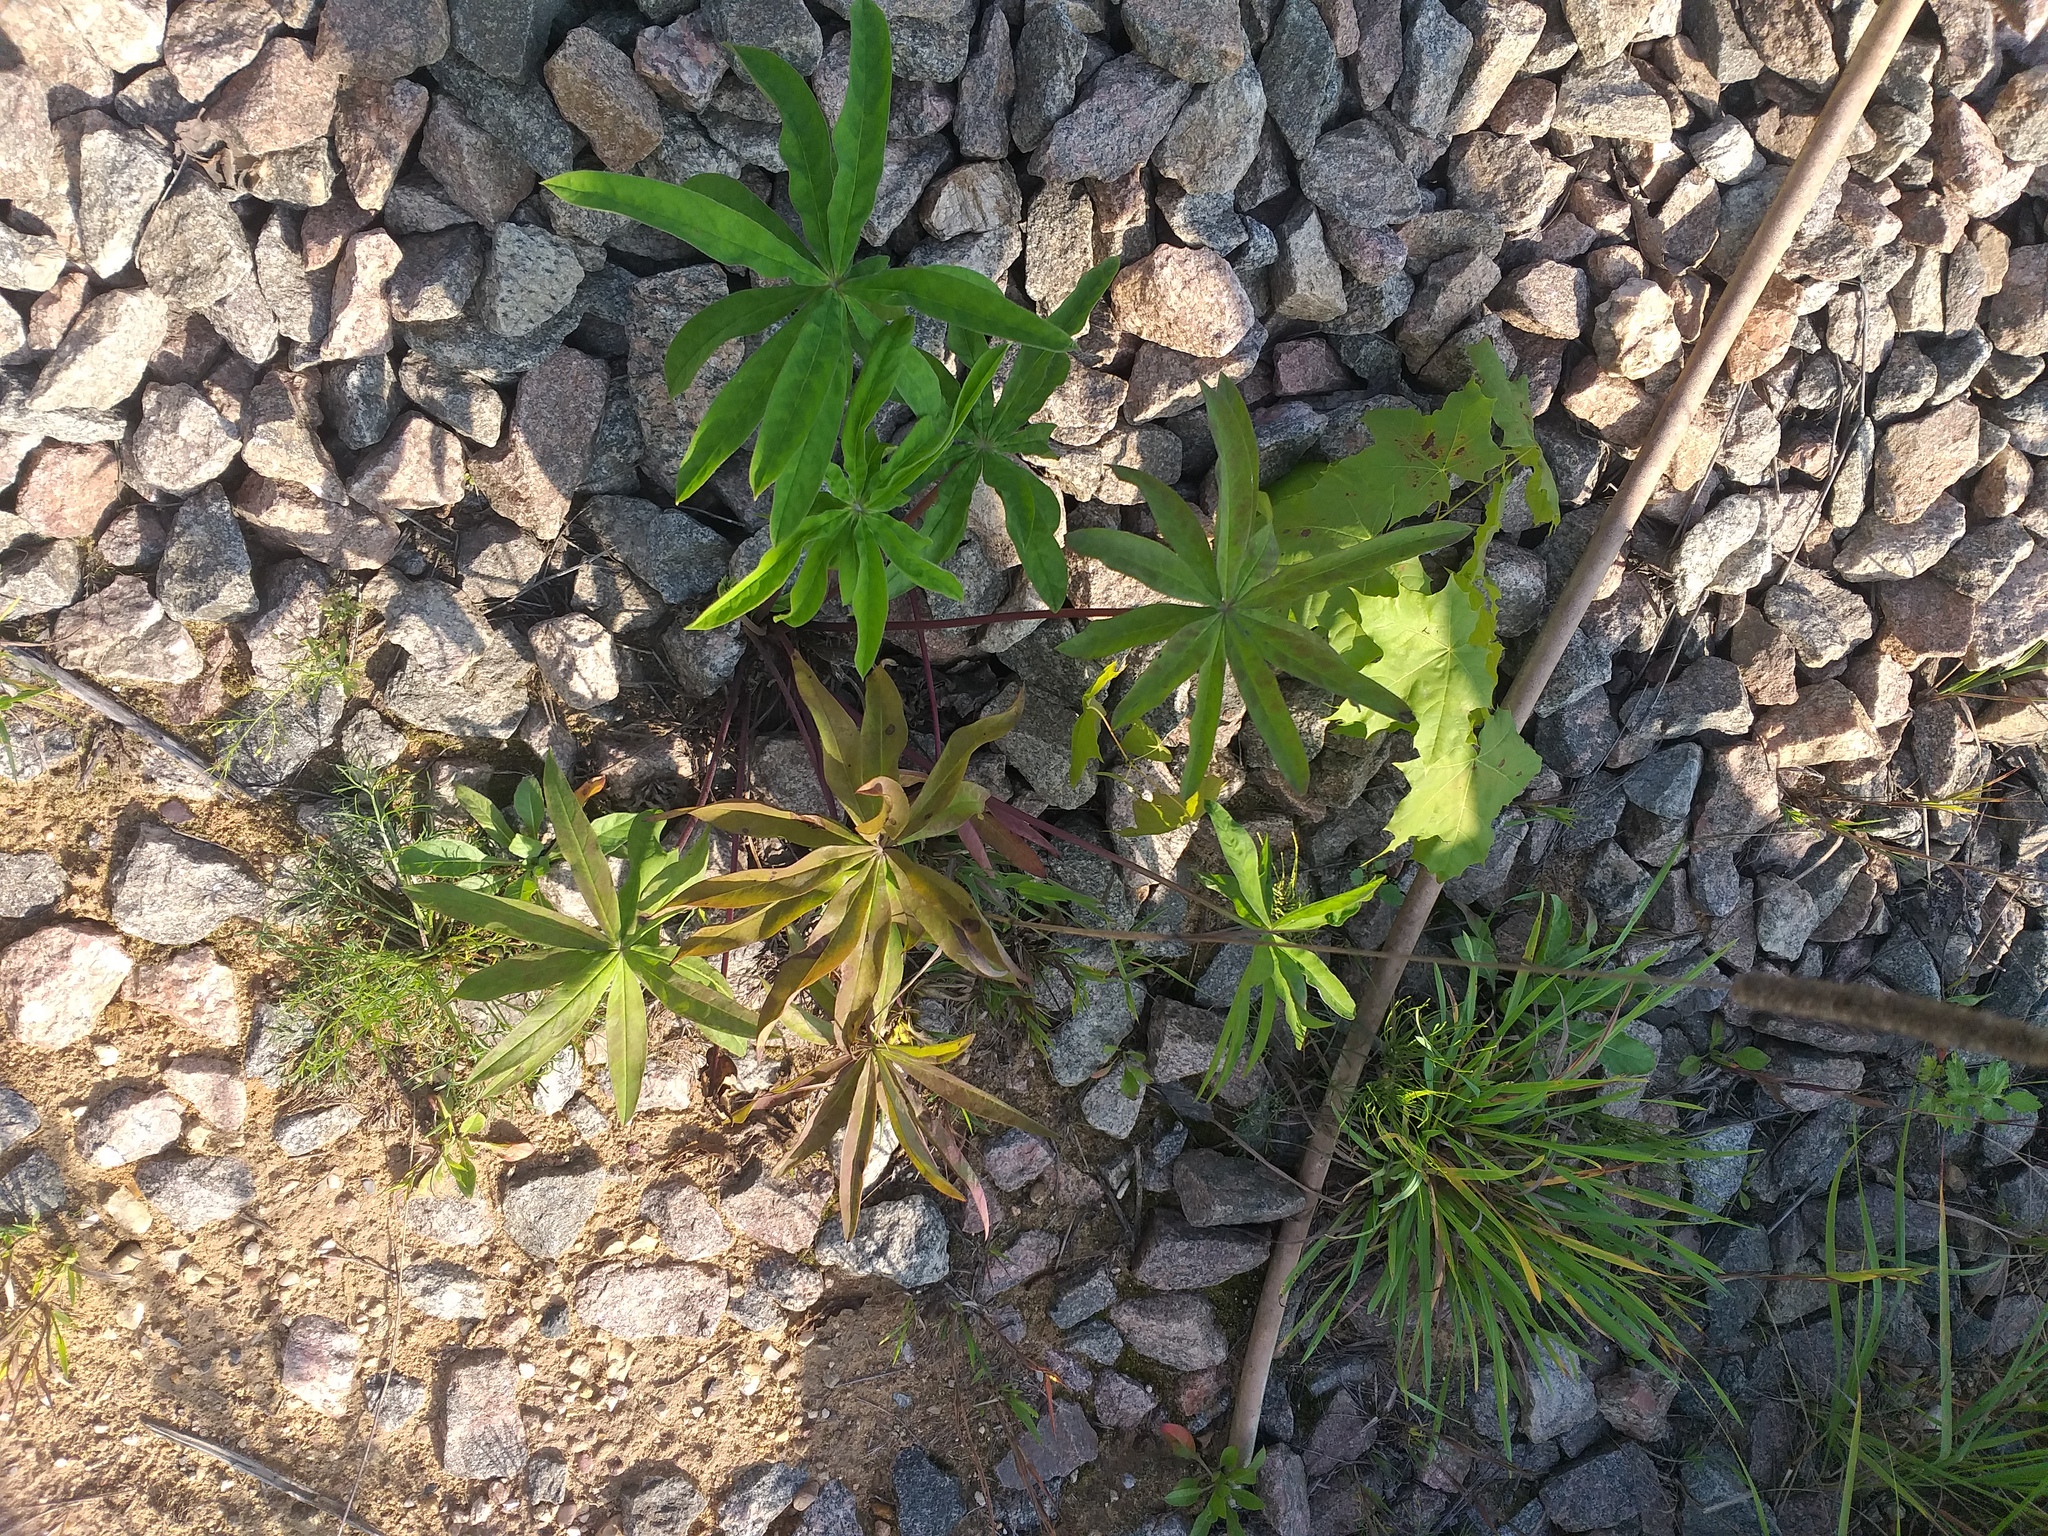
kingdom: Plantae
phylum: Tracheophyta
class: Magnoliopsida
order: Fabales
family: Fabaceae
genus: Lupinus
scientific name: Lupinus polyphyllus
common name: Garden lupin
